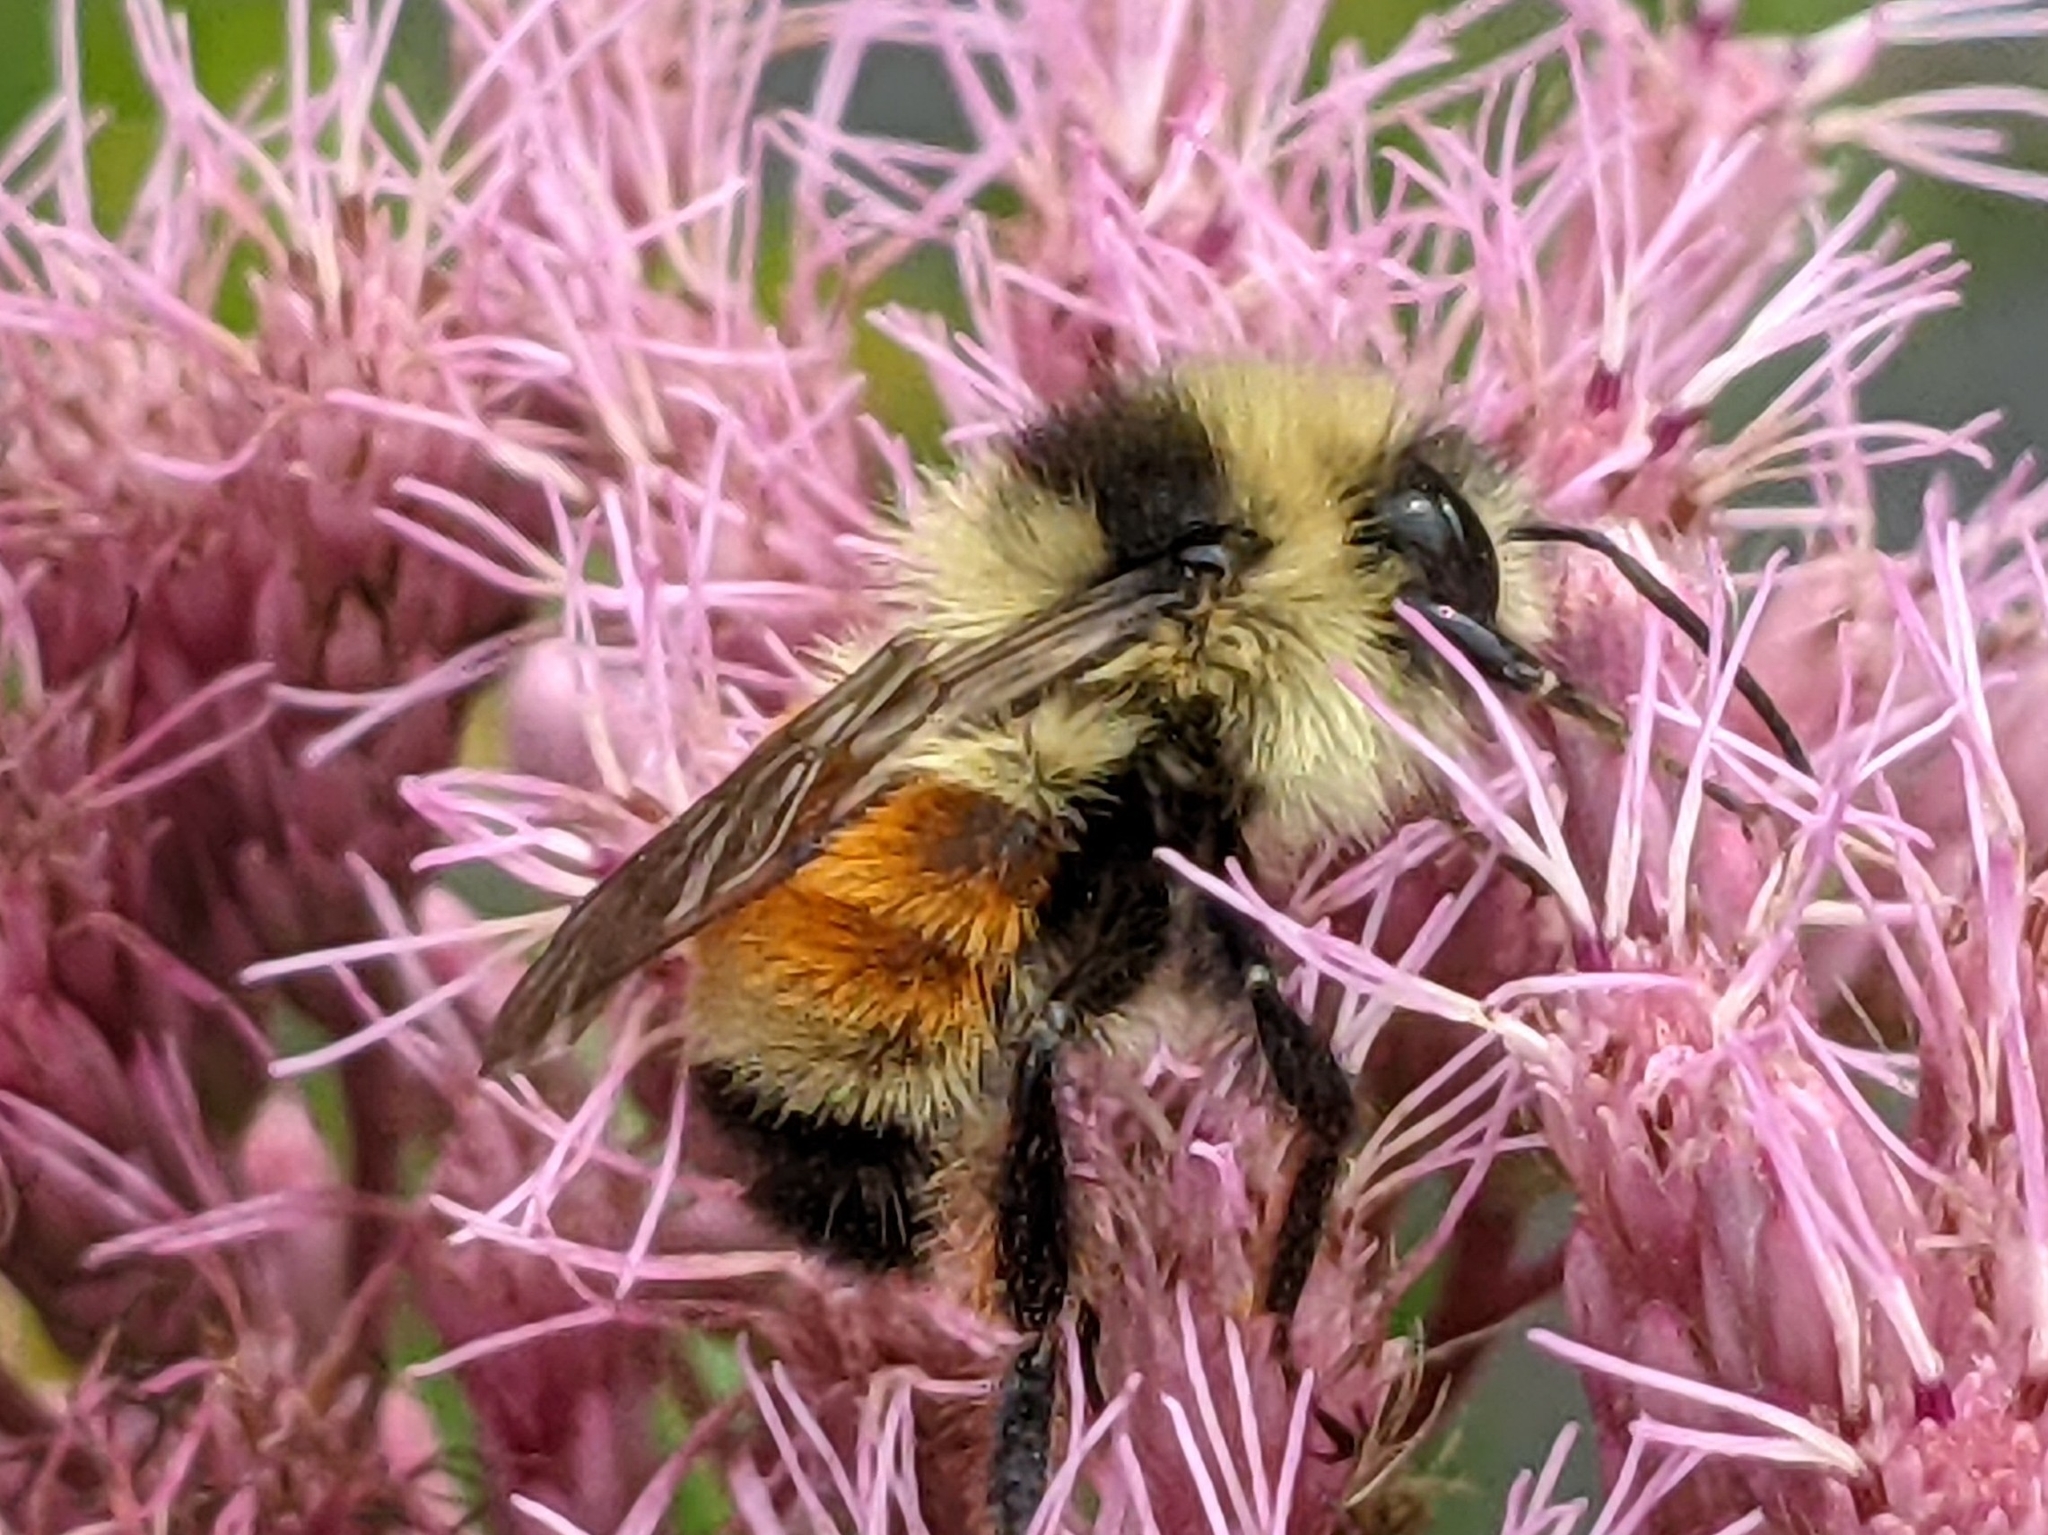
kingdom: Animalia
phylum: Arthropoda
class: Insecta
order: Hymenoptera
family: Apidae
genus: Bombus
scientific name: Bombus ternarius
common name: Tri-colored bumble bee
